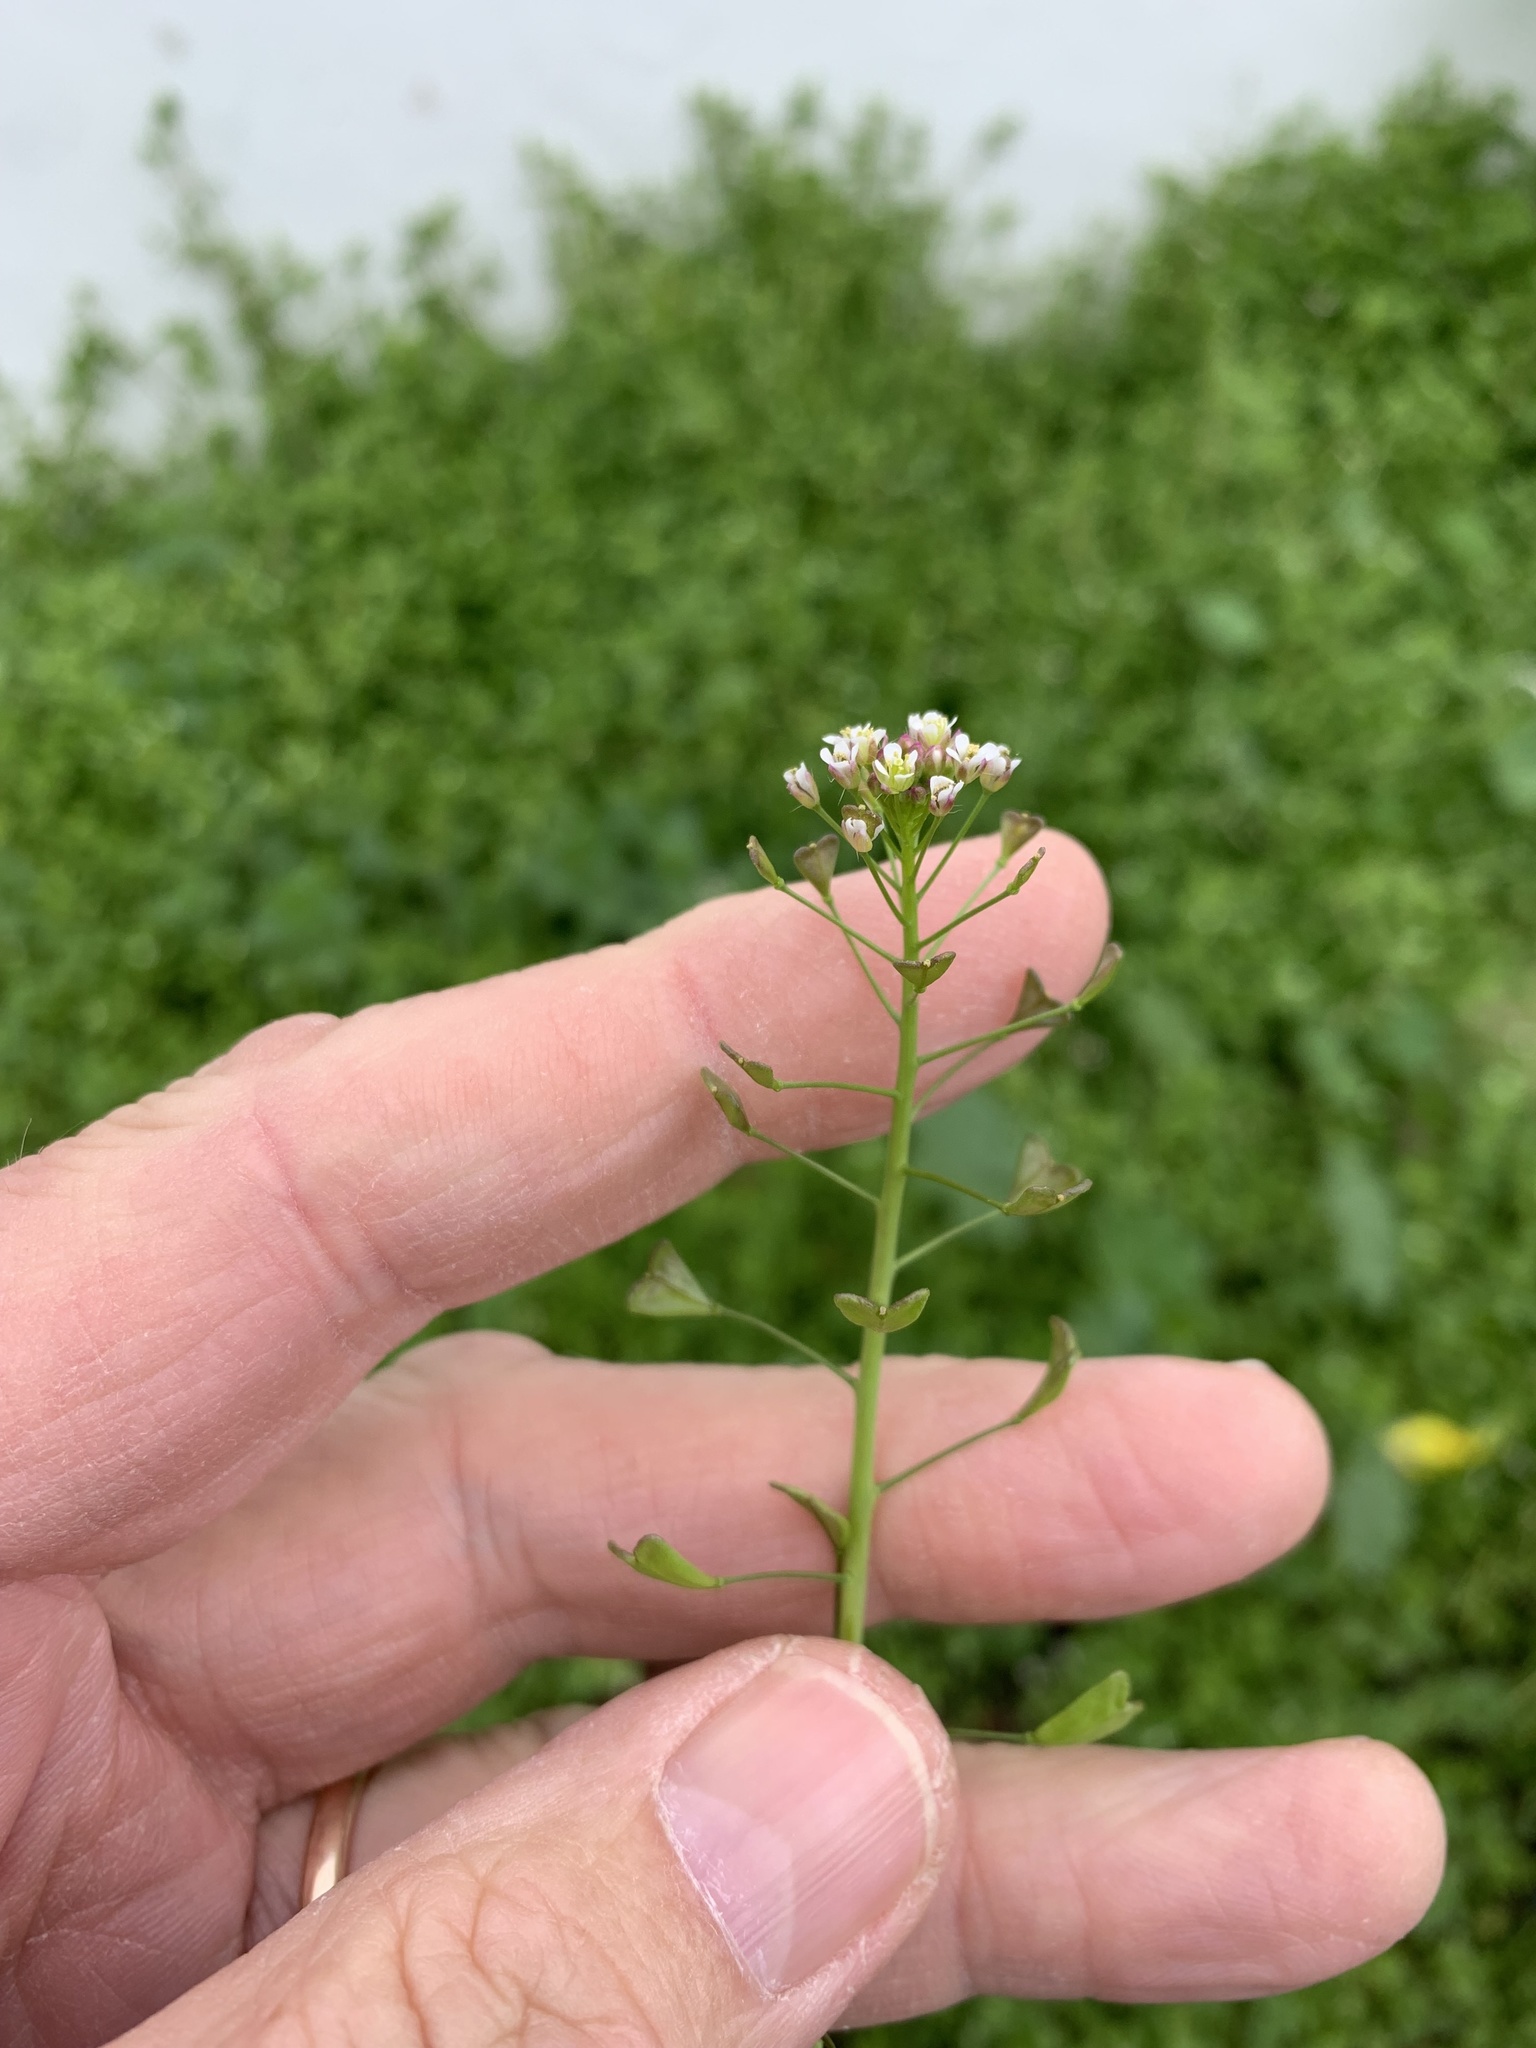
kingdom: Plantae
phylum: Tracheophyta
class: Magnoliopsida
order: Brassicales
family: Brassicaceae
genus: Capsella
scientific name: Capsella bursa-pastoris
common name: Shepherd's purse
